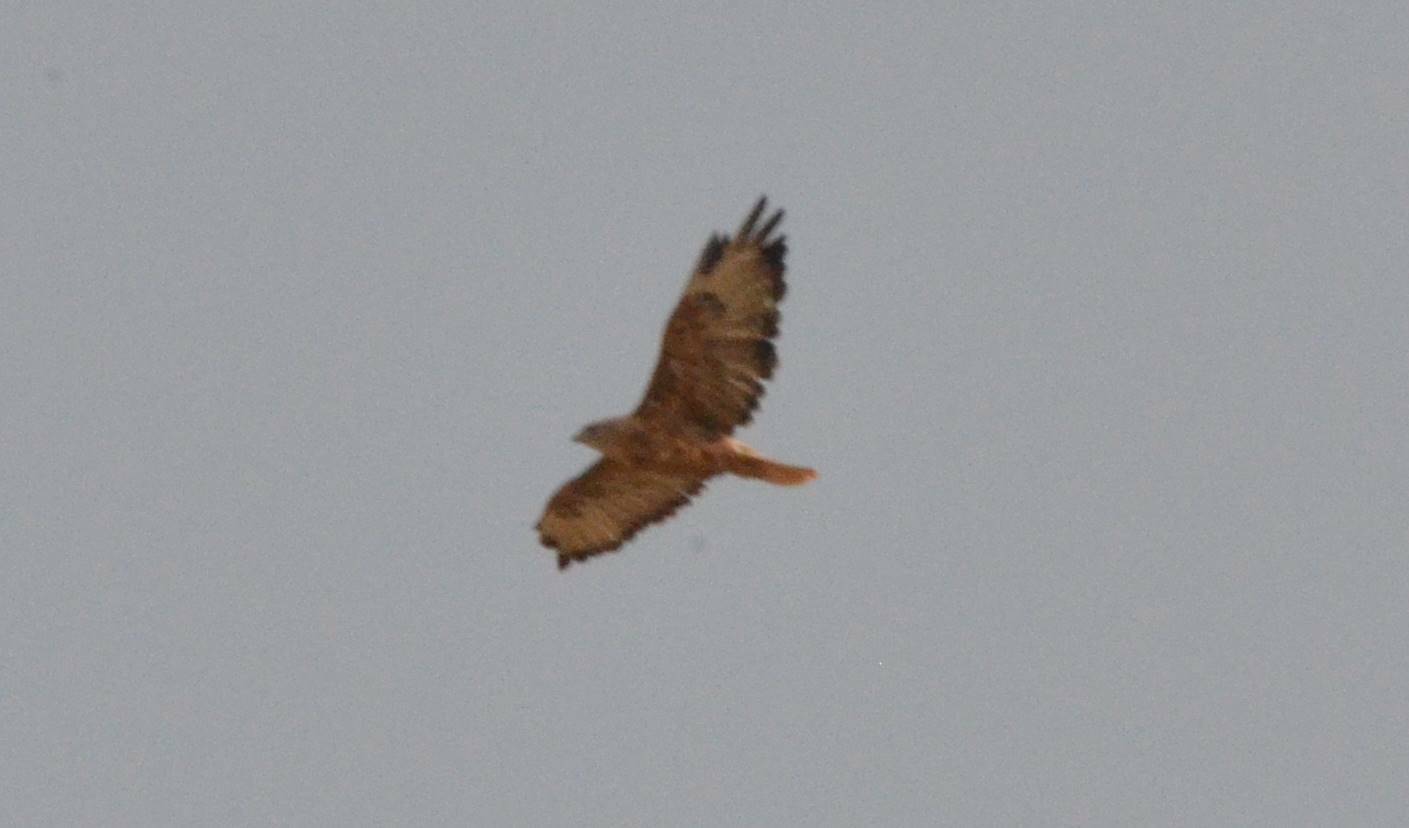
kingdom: Animalia
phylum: Chordata
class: Aves
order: Accipitriformes
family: Accipitridae
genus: Buteo
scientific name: Buteo rufinus
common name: Long-legged buzzard
